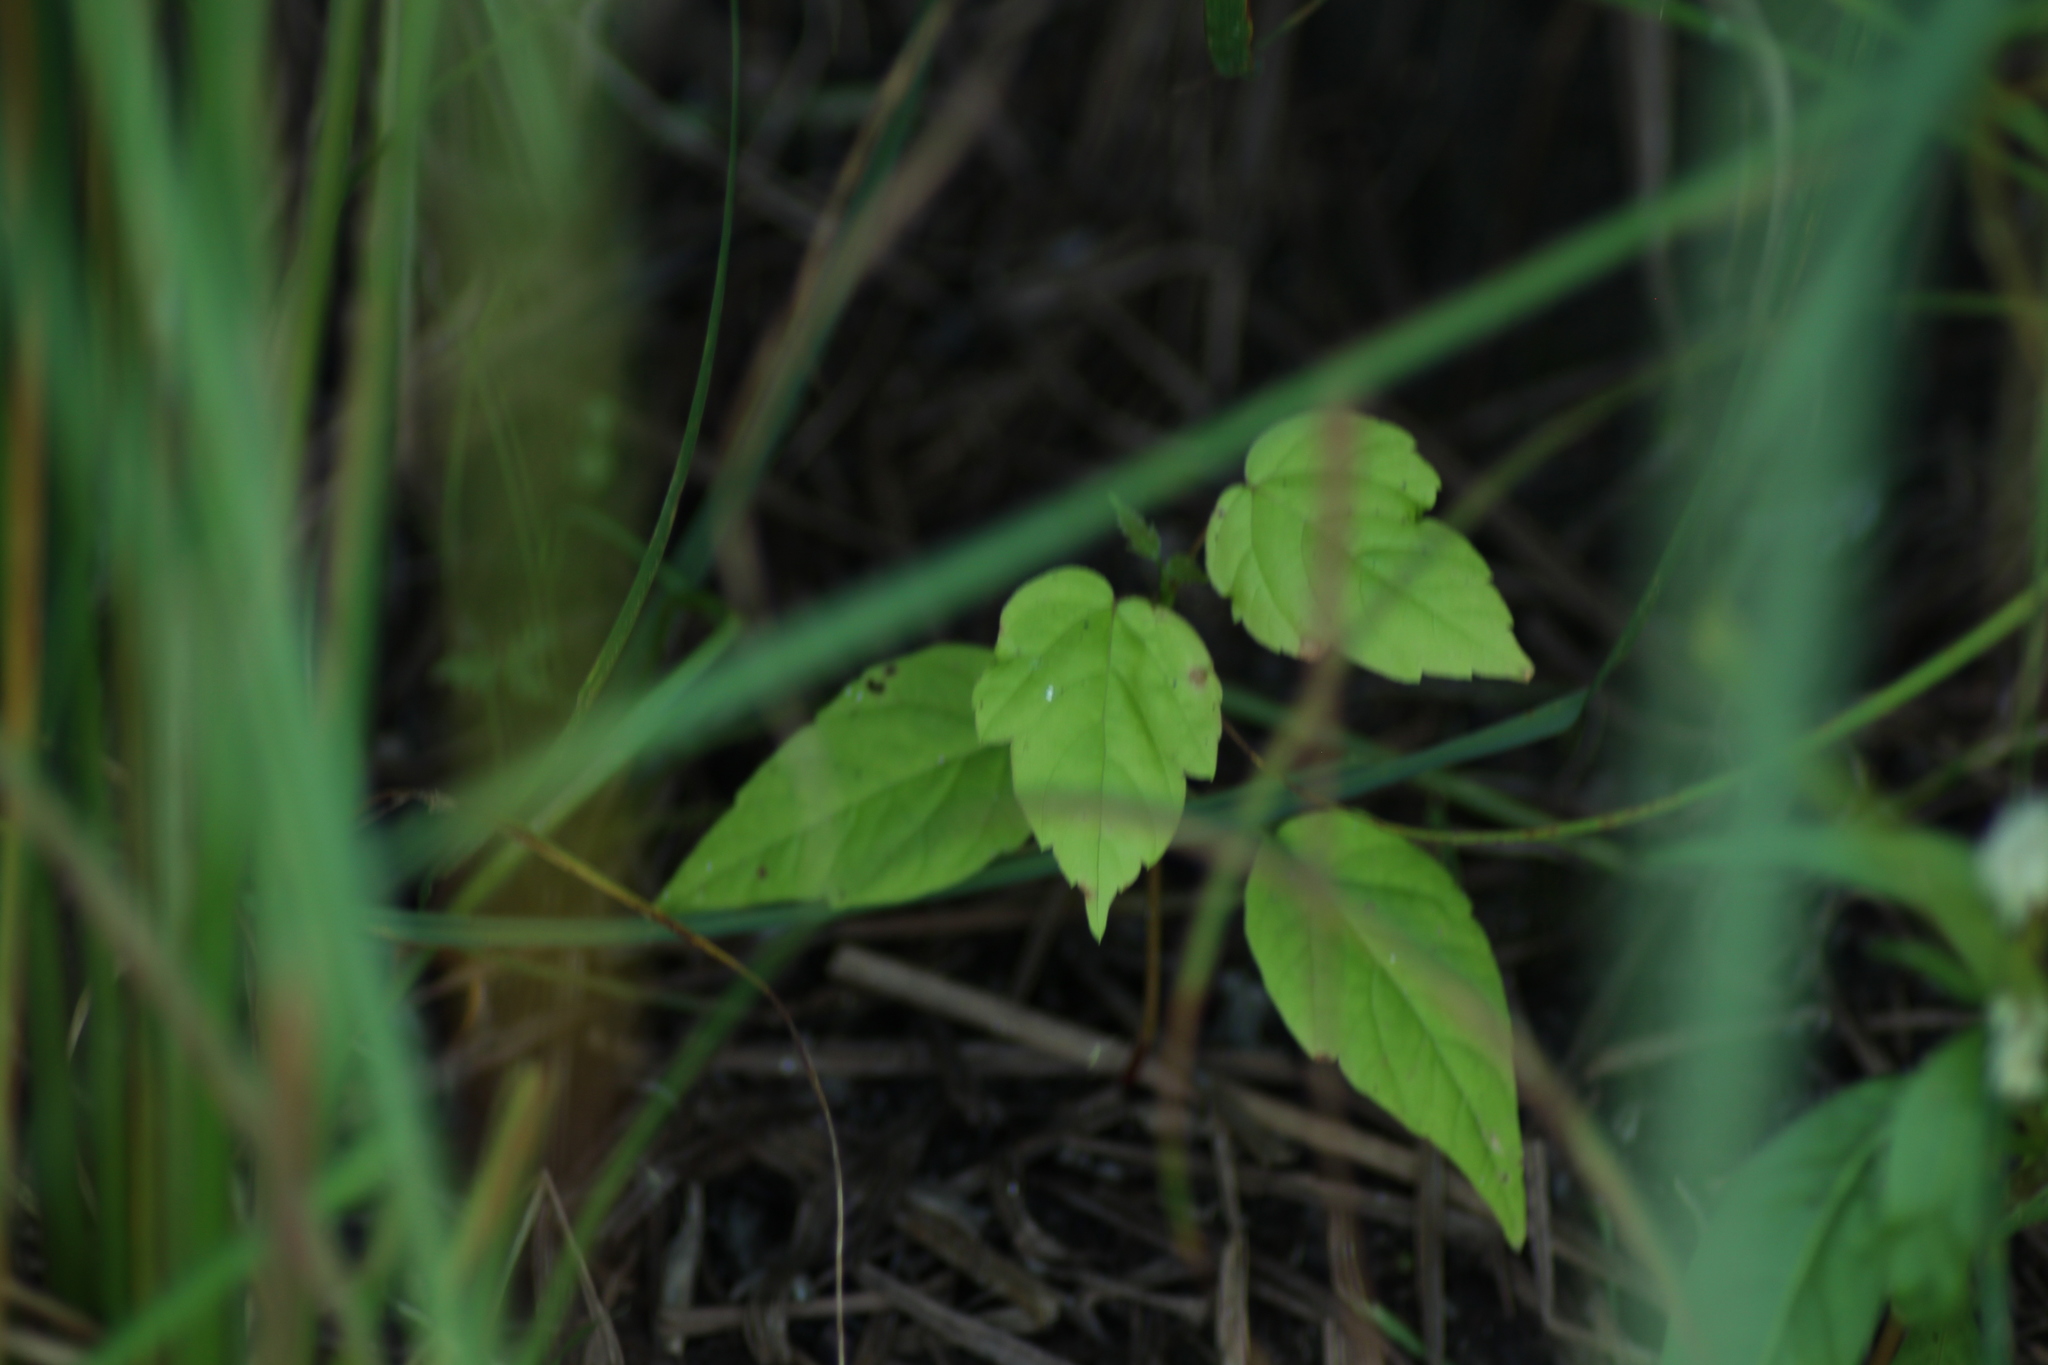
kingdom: Plantae
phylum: Tracheophyta
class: Magnoliopsida
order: Sapindales
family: Sapindaceae
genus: Acer
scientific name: Acer negundo
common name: Ashleaf maple
